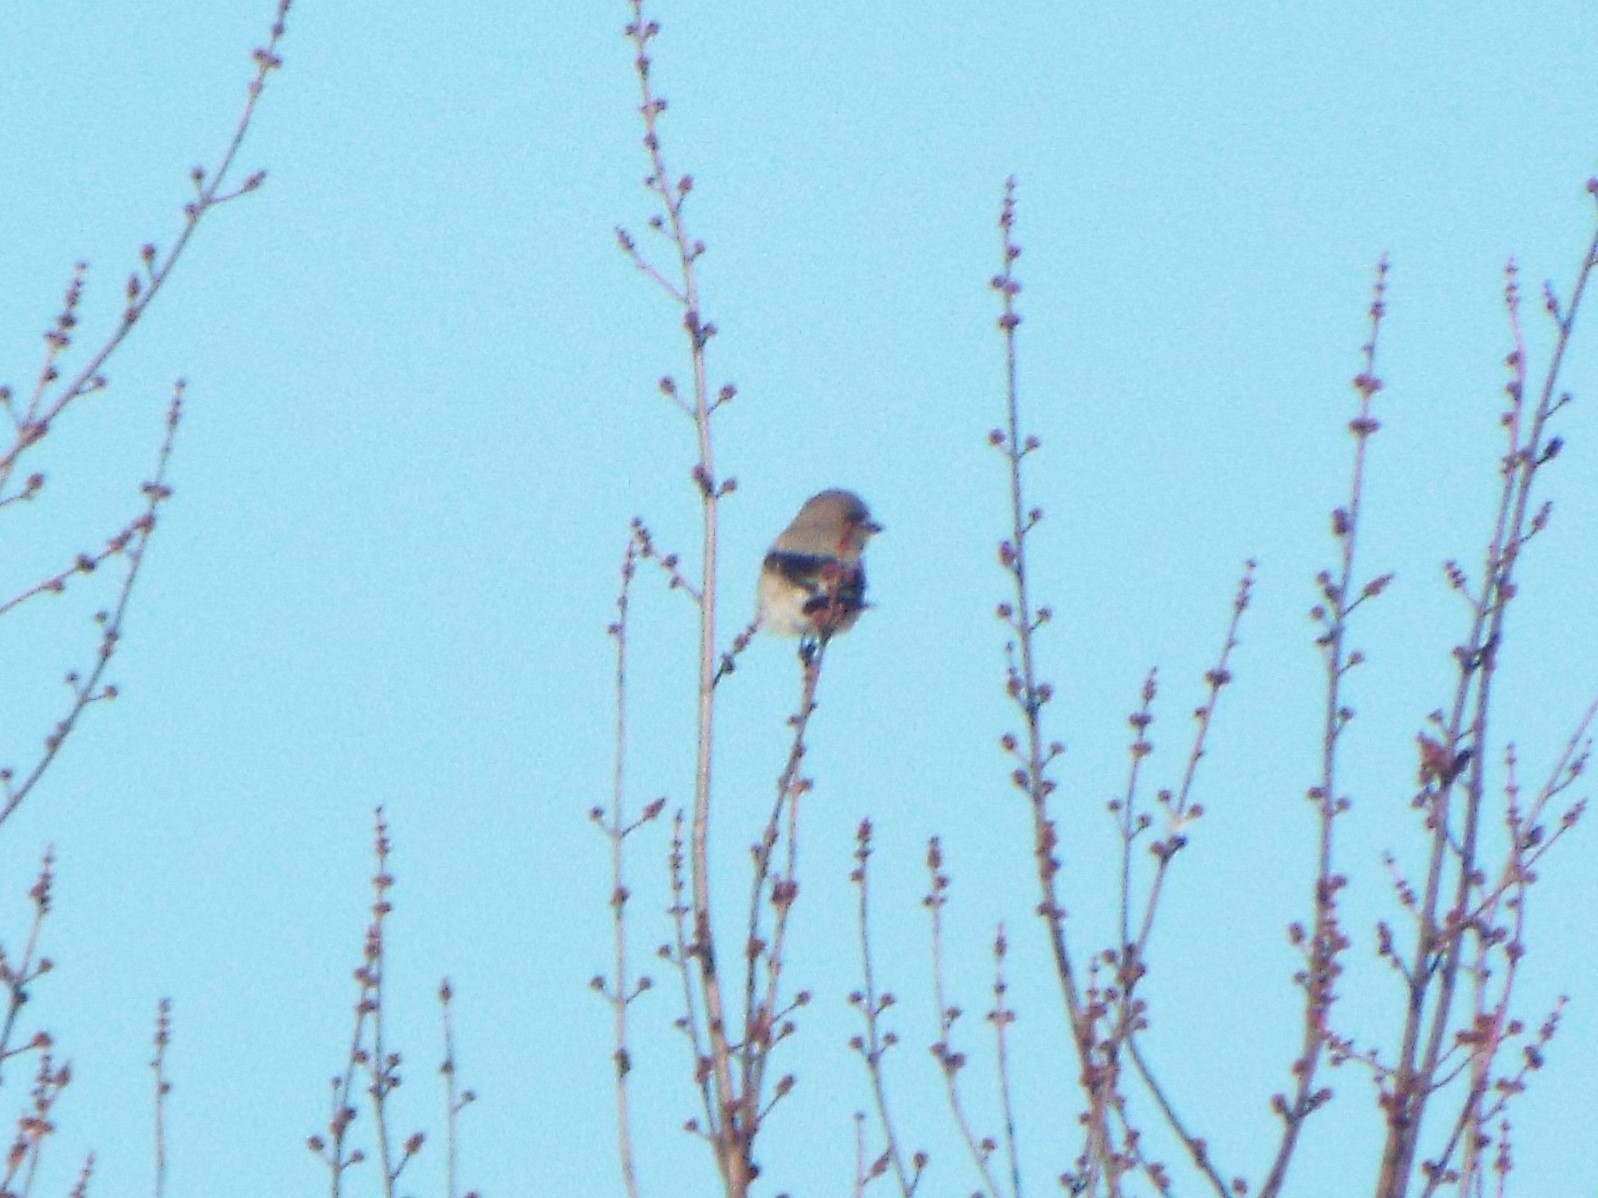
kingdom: Animalia
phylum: Chordata
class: Aves
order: Passeriformes
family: Laniidae
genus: Lanius
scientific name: Lanius borealis
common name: Northern shrike
